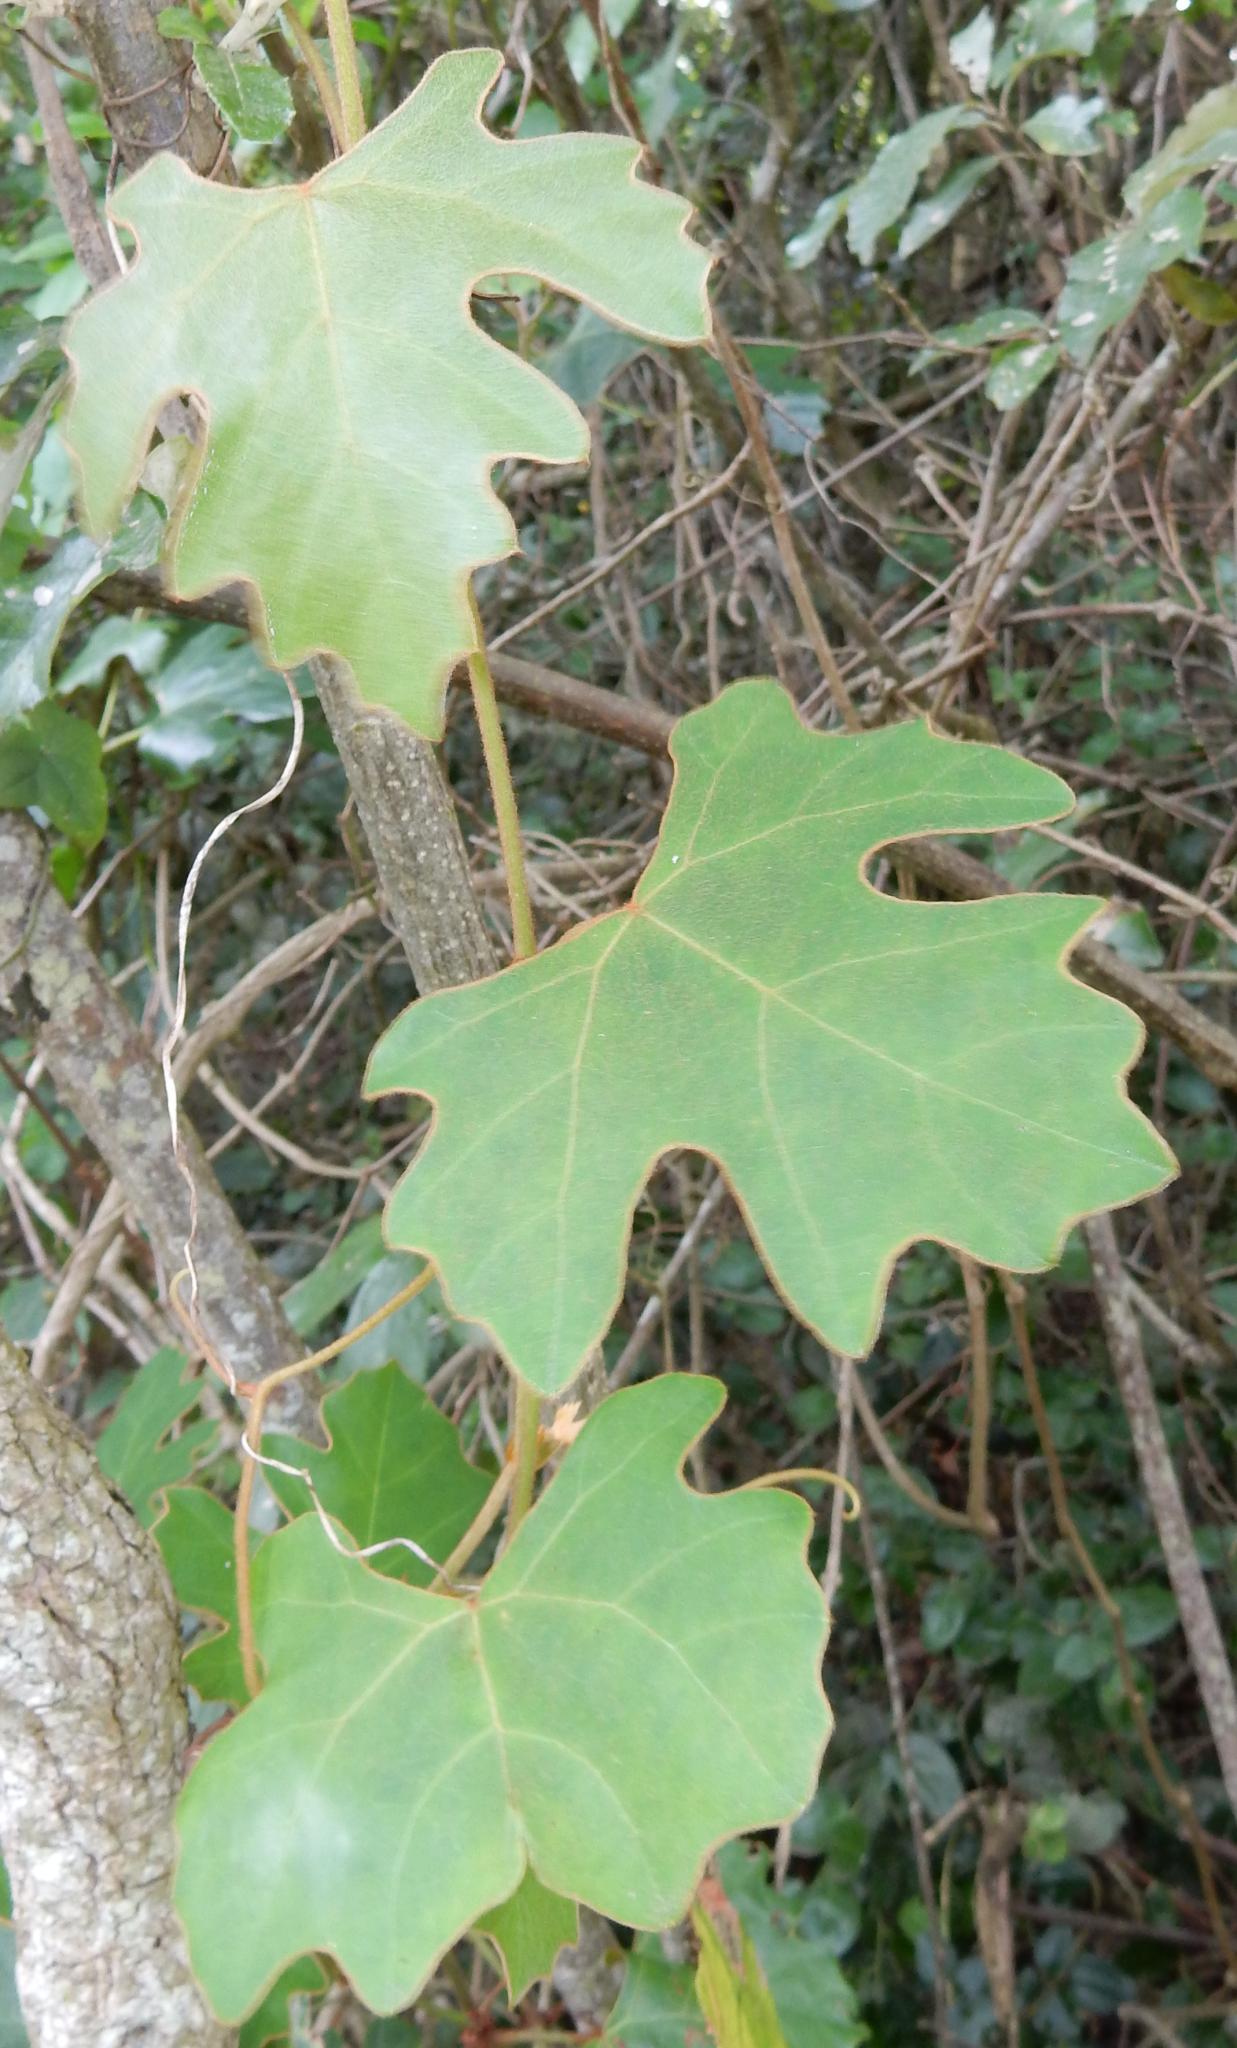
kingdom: Plantae
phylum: Tracheophyta
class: Magnoliopsida
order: Vitales
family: Vitaceae
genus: Rhoicissus
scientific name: Rhoicissus tomentosa
